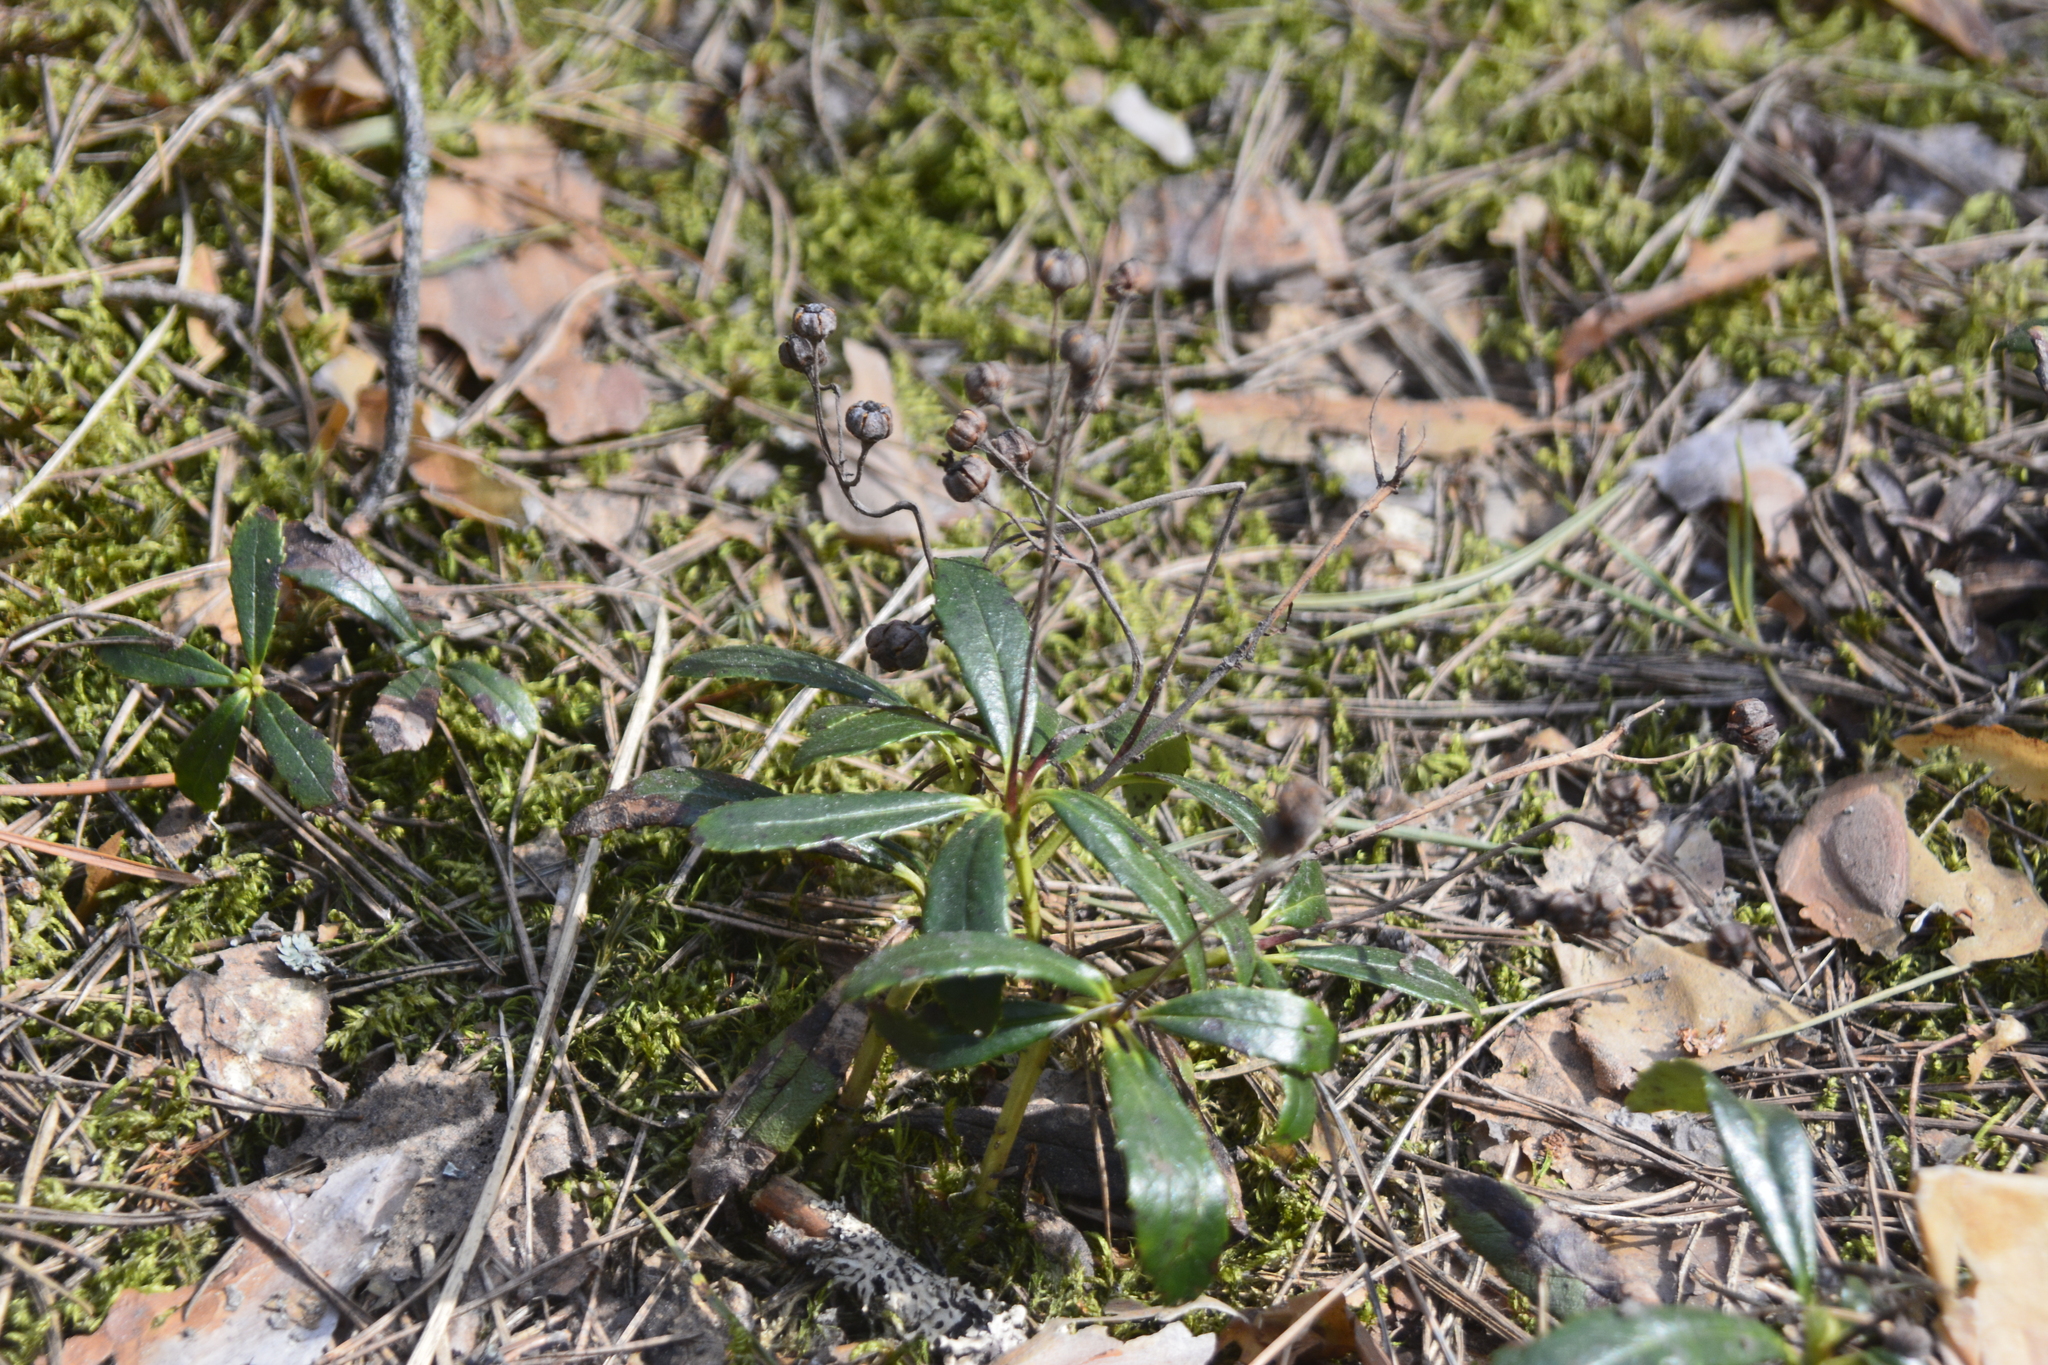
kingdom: Plantae
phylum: Tracheophyta
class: Magnoliopsida
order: Ericales
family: Ericaceae
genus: Chimaphila
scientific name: Chimaphila umbellata
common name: Pipsissewa
